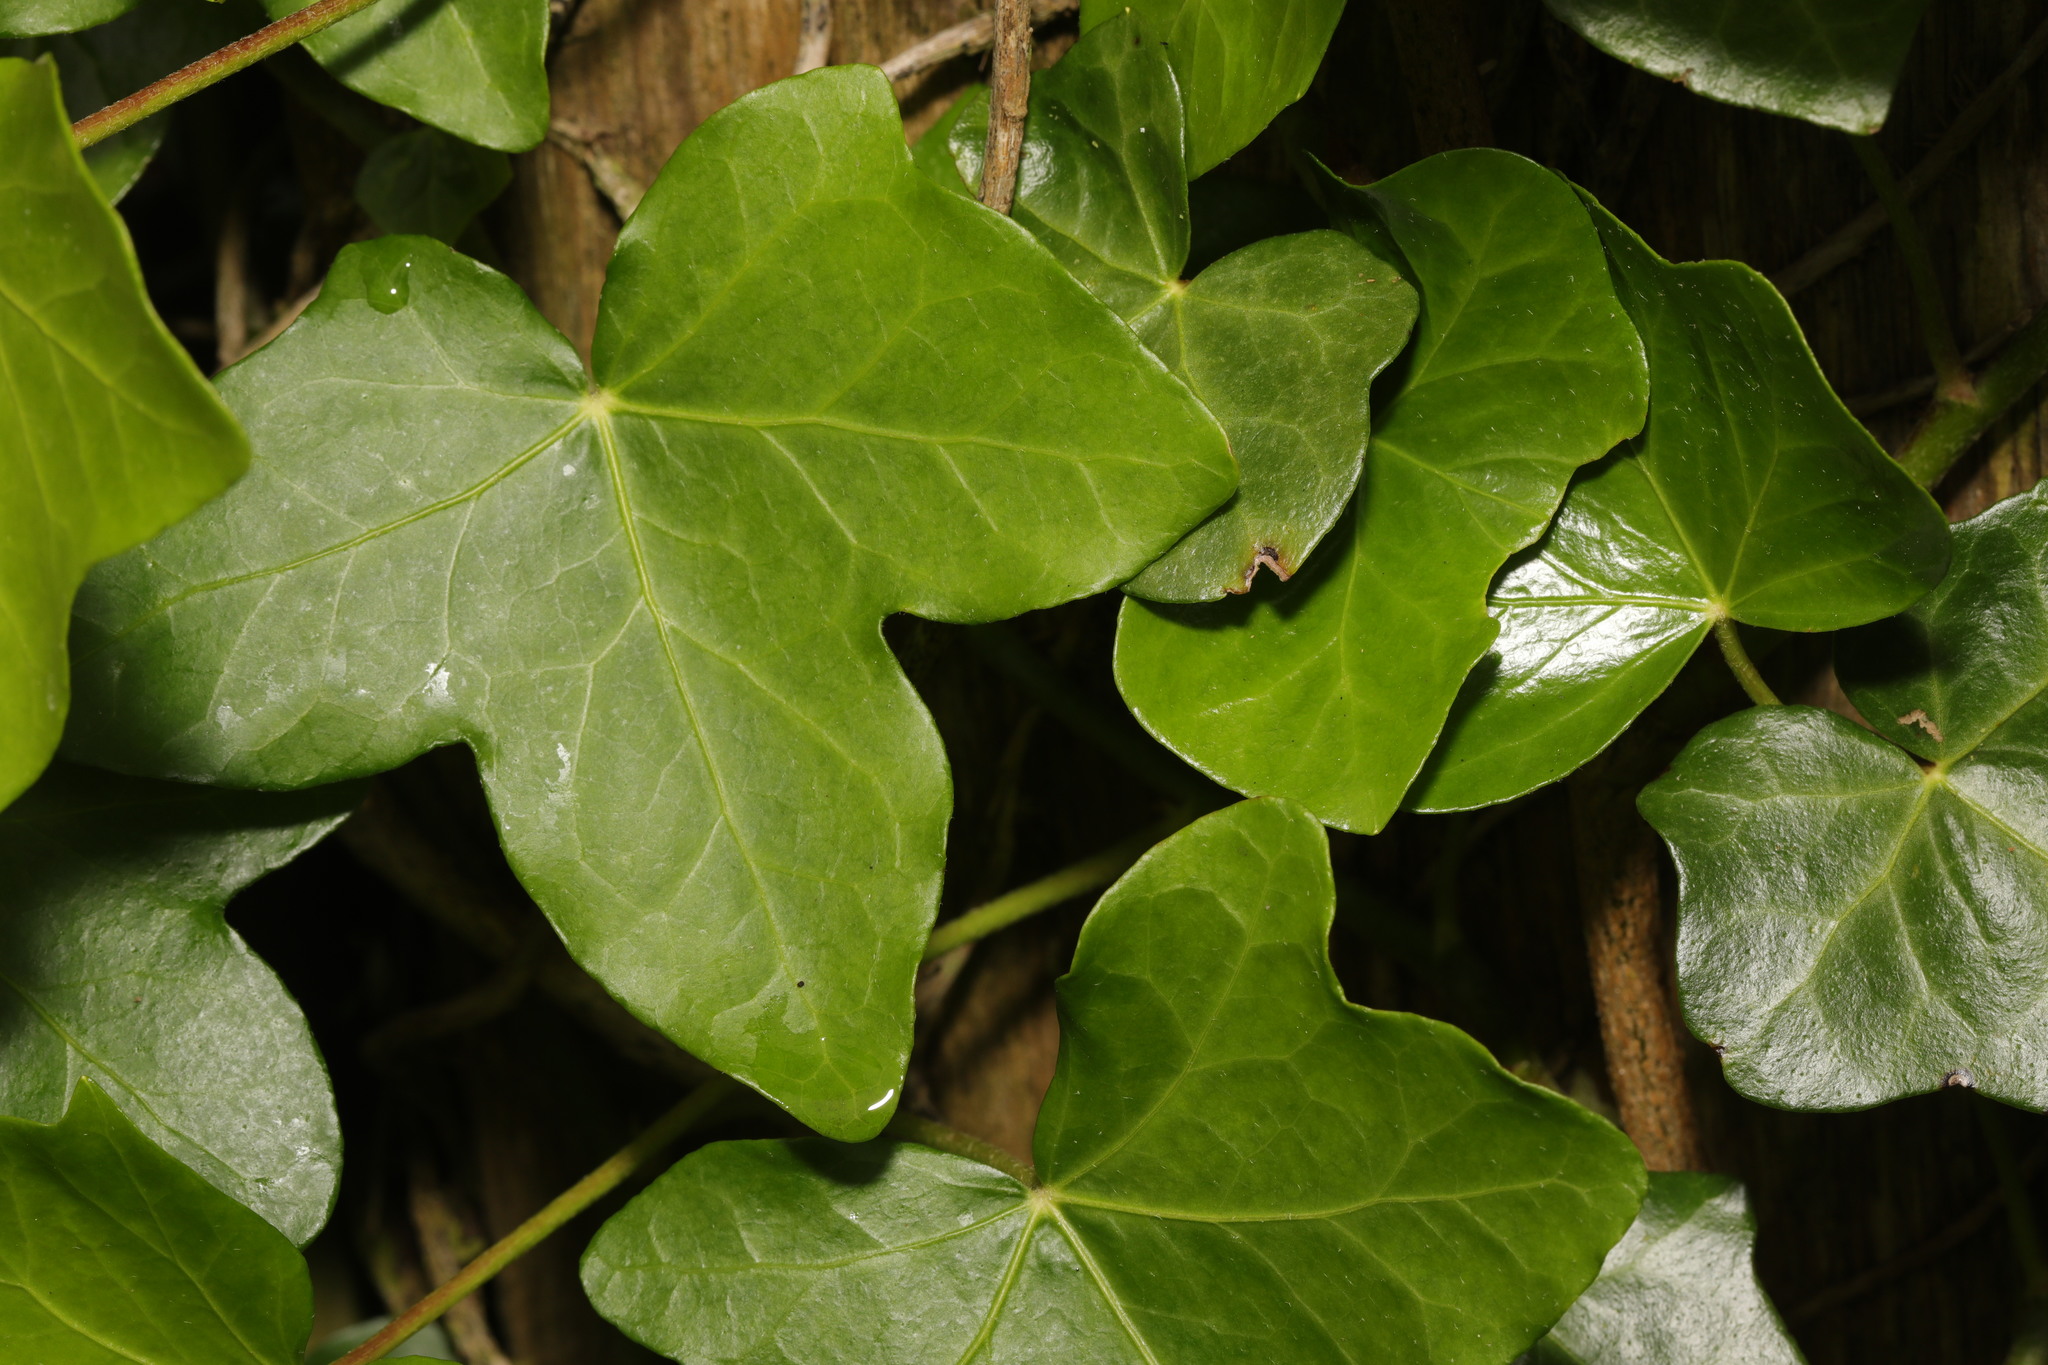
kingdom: Plantae
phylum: Tracheophyta
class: Magnoliopsida
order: Apiales
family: Araliaceae
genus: Hedera
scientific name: Hedera helix
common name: Ivy
